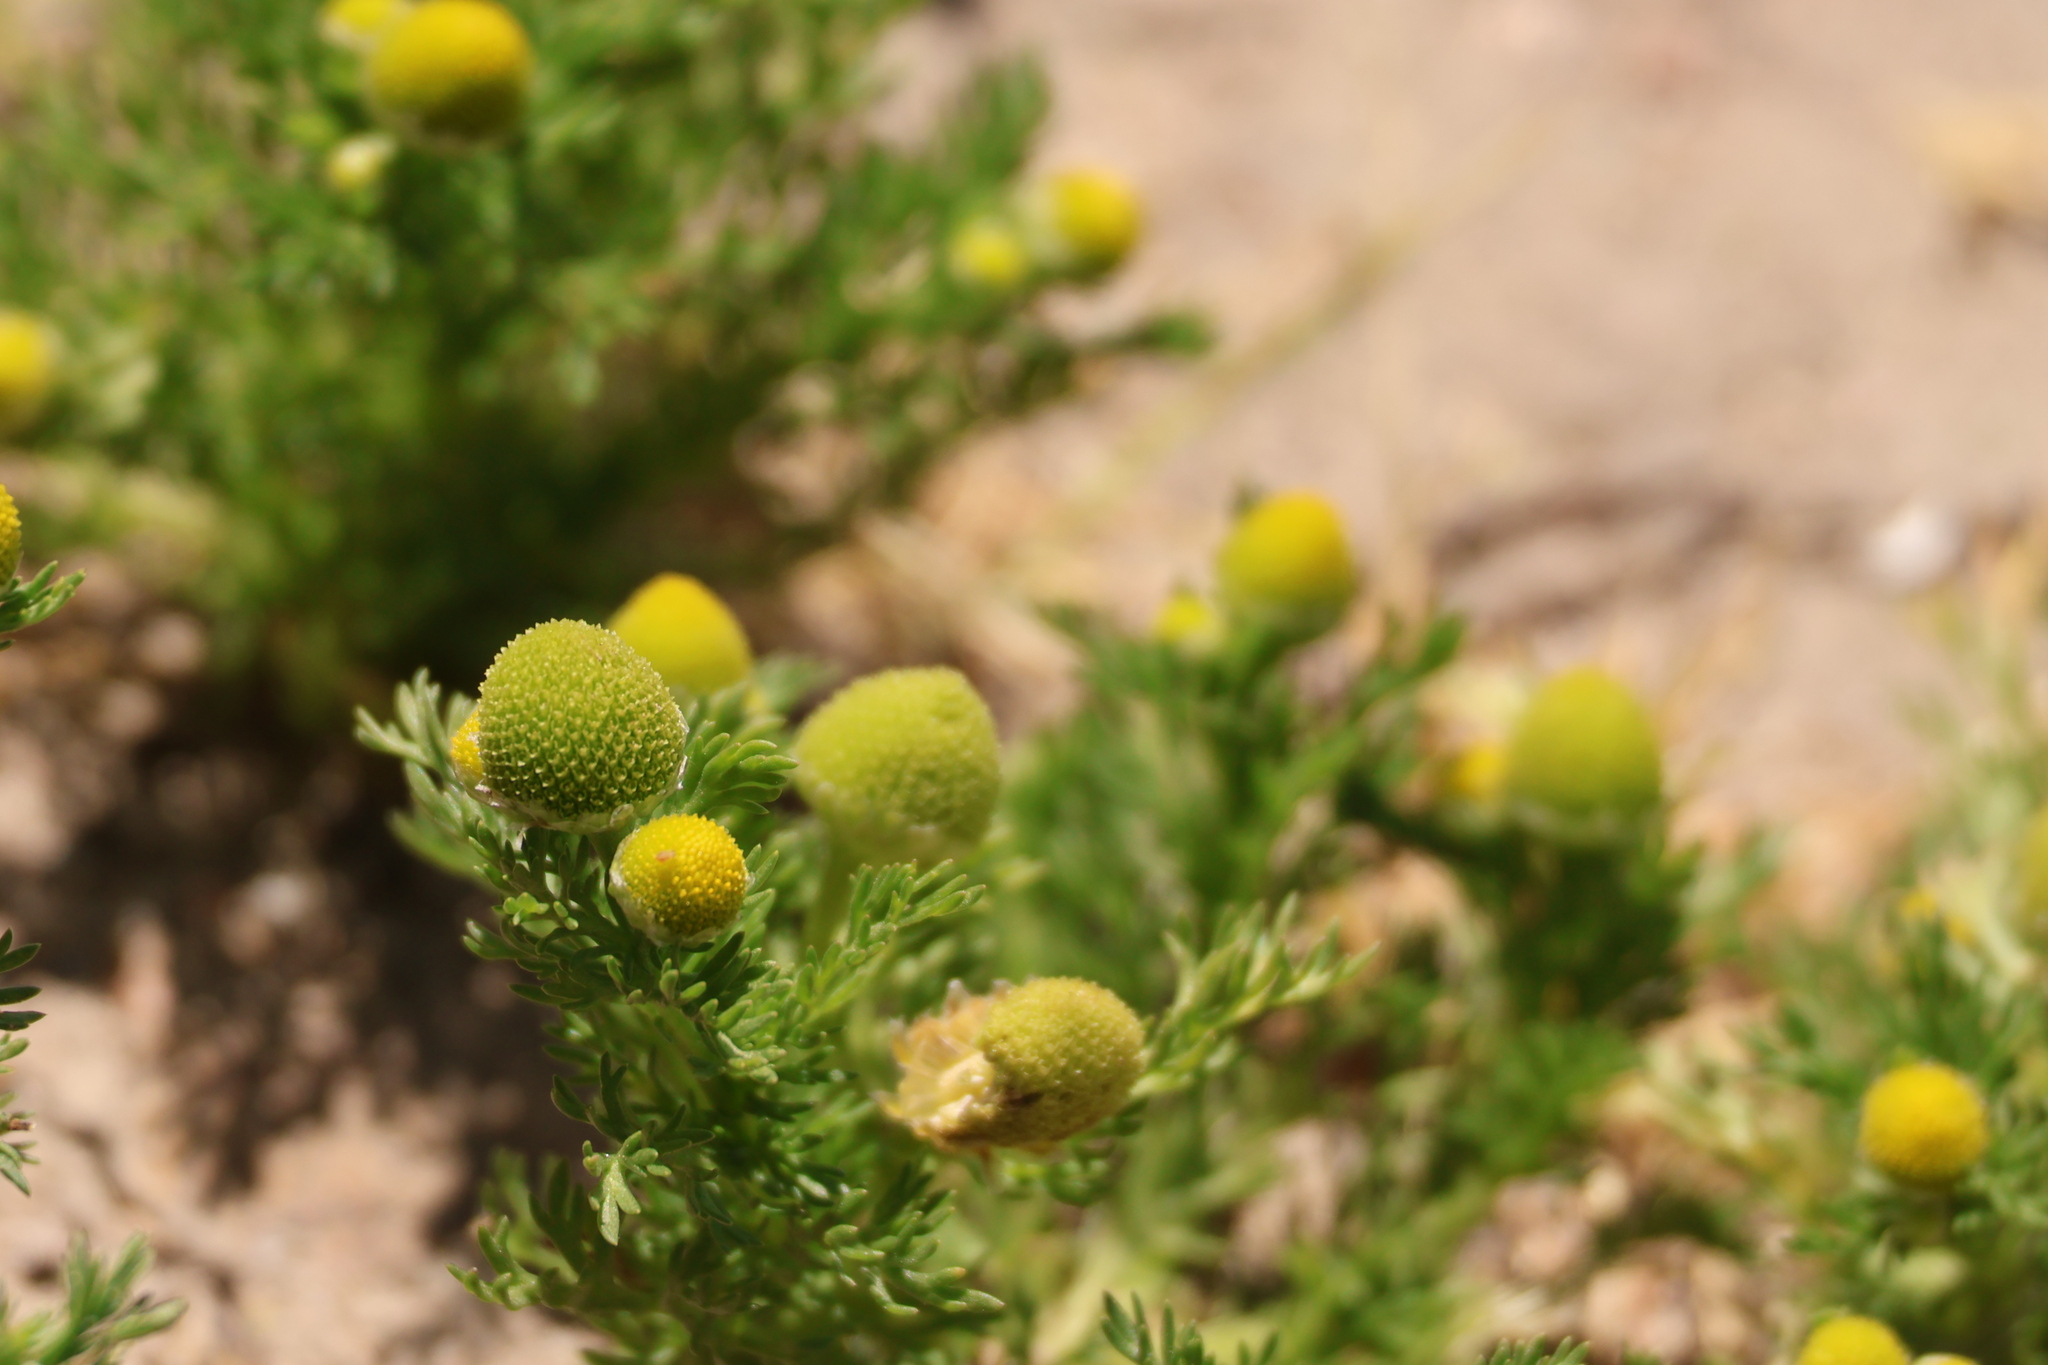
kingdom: Plantae
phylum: Tracheophyta
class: Magnoliopsida
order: Asterales
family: Asteraceae
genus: Matricaria
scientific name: Matricaria discoidea
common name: Disc mayweed
